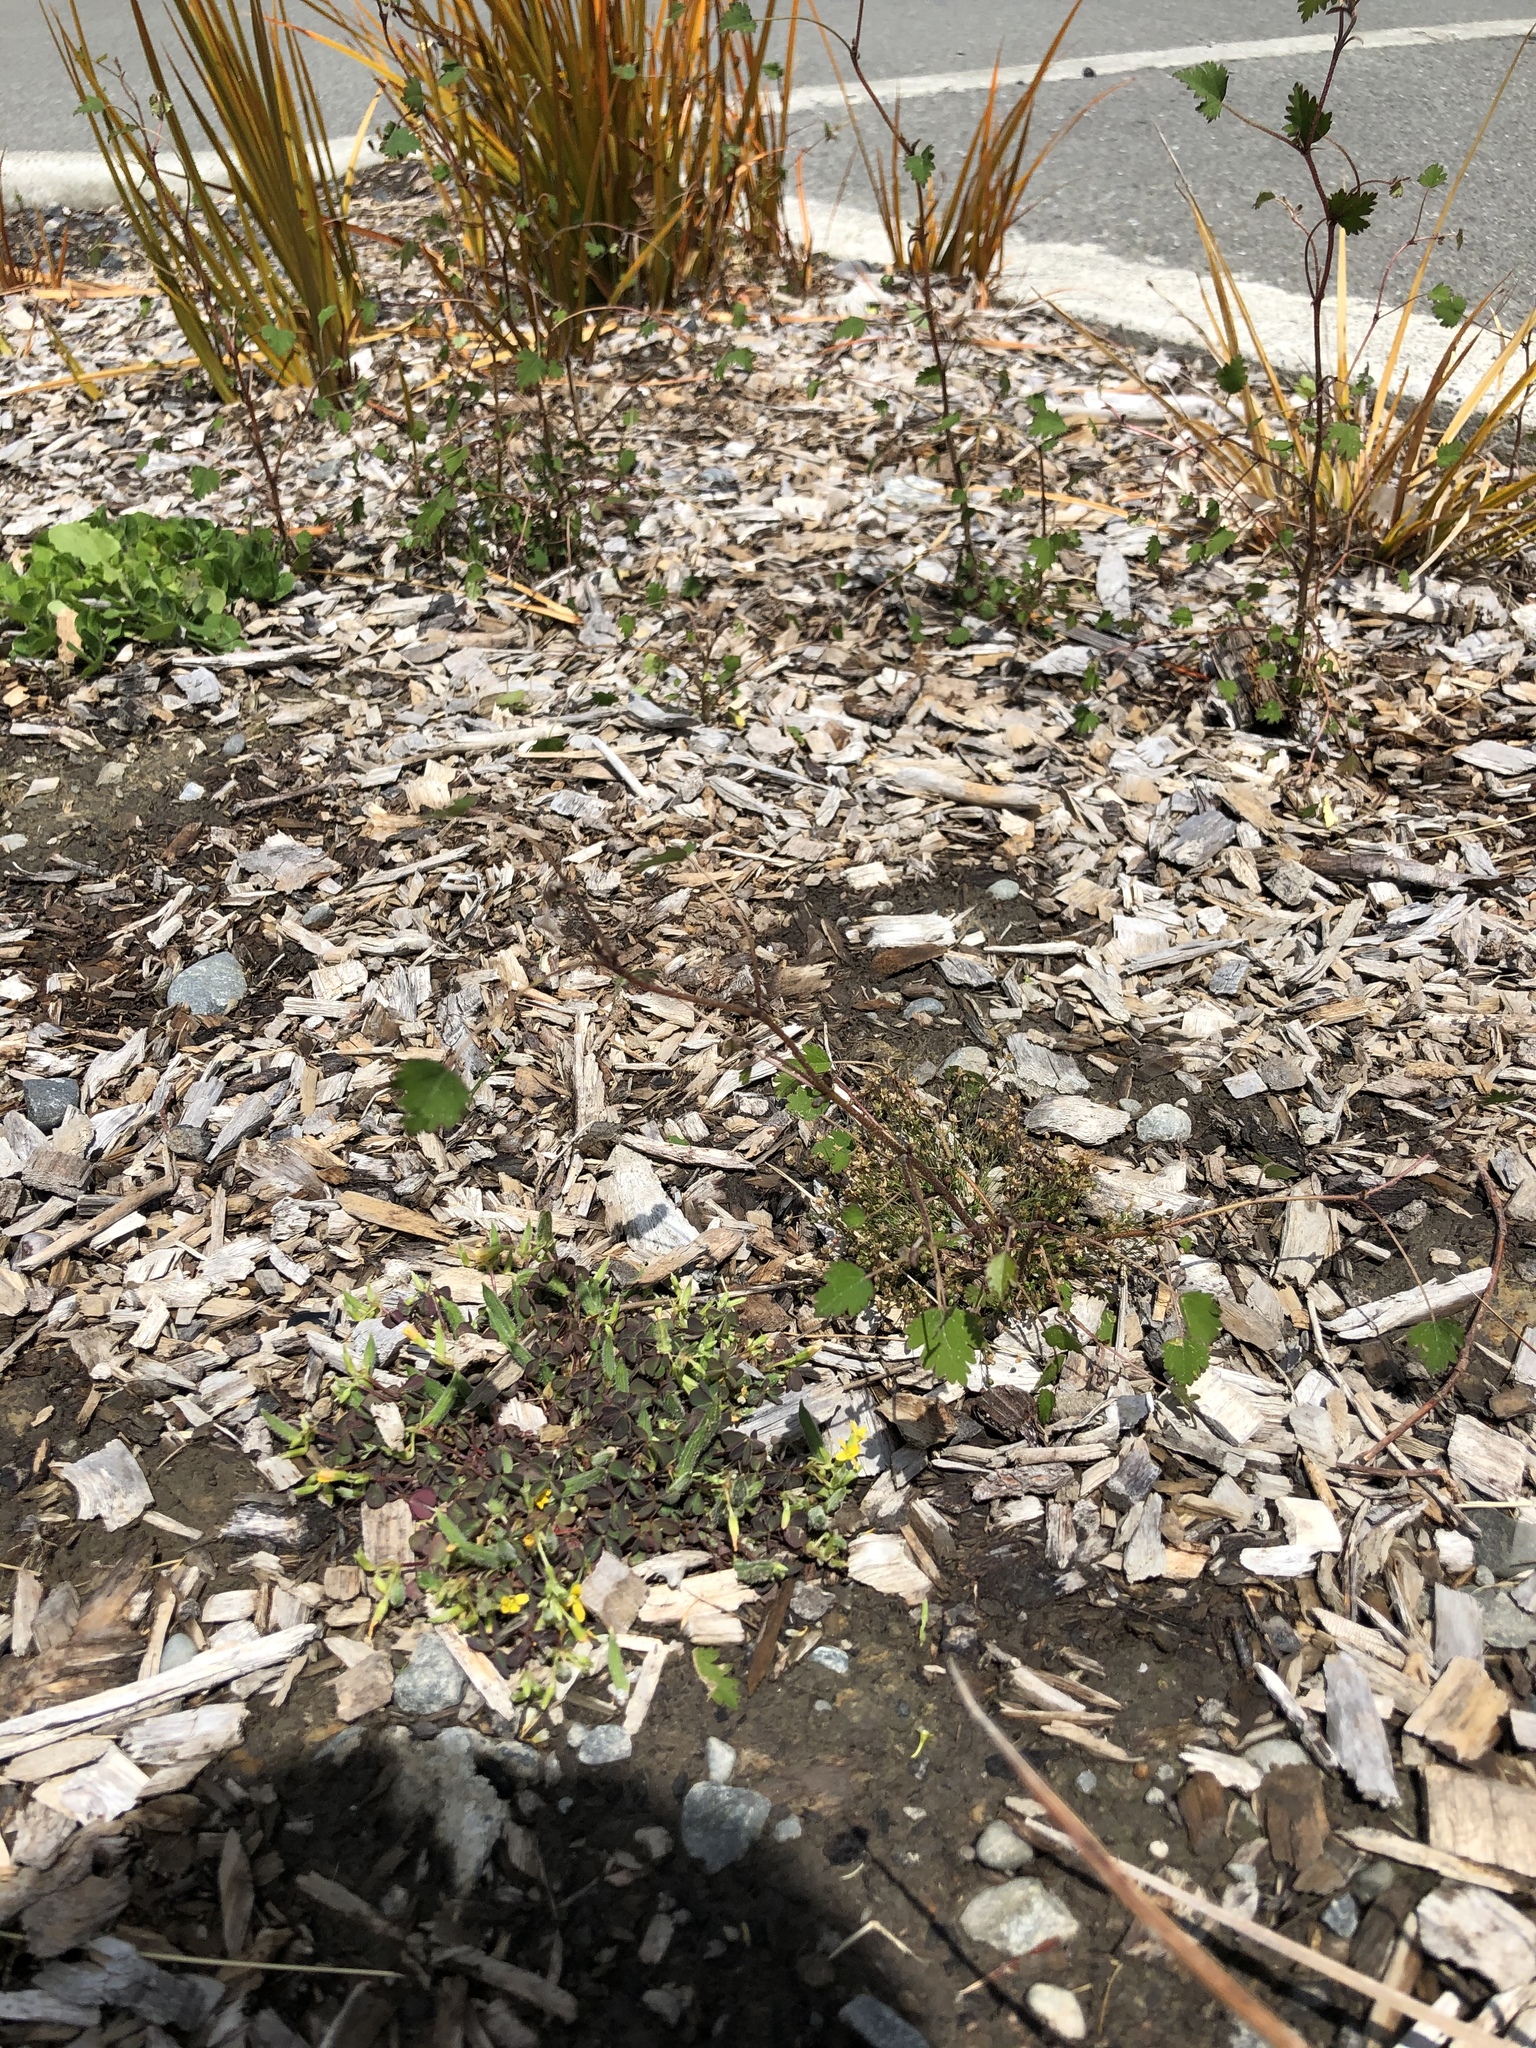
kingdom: Plantae
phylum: Tracheophyta
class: Magnoliopsida
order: Malvales
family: Malvaceae
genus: Plagianthus
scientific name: Plagianthus regius
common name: Manatu
